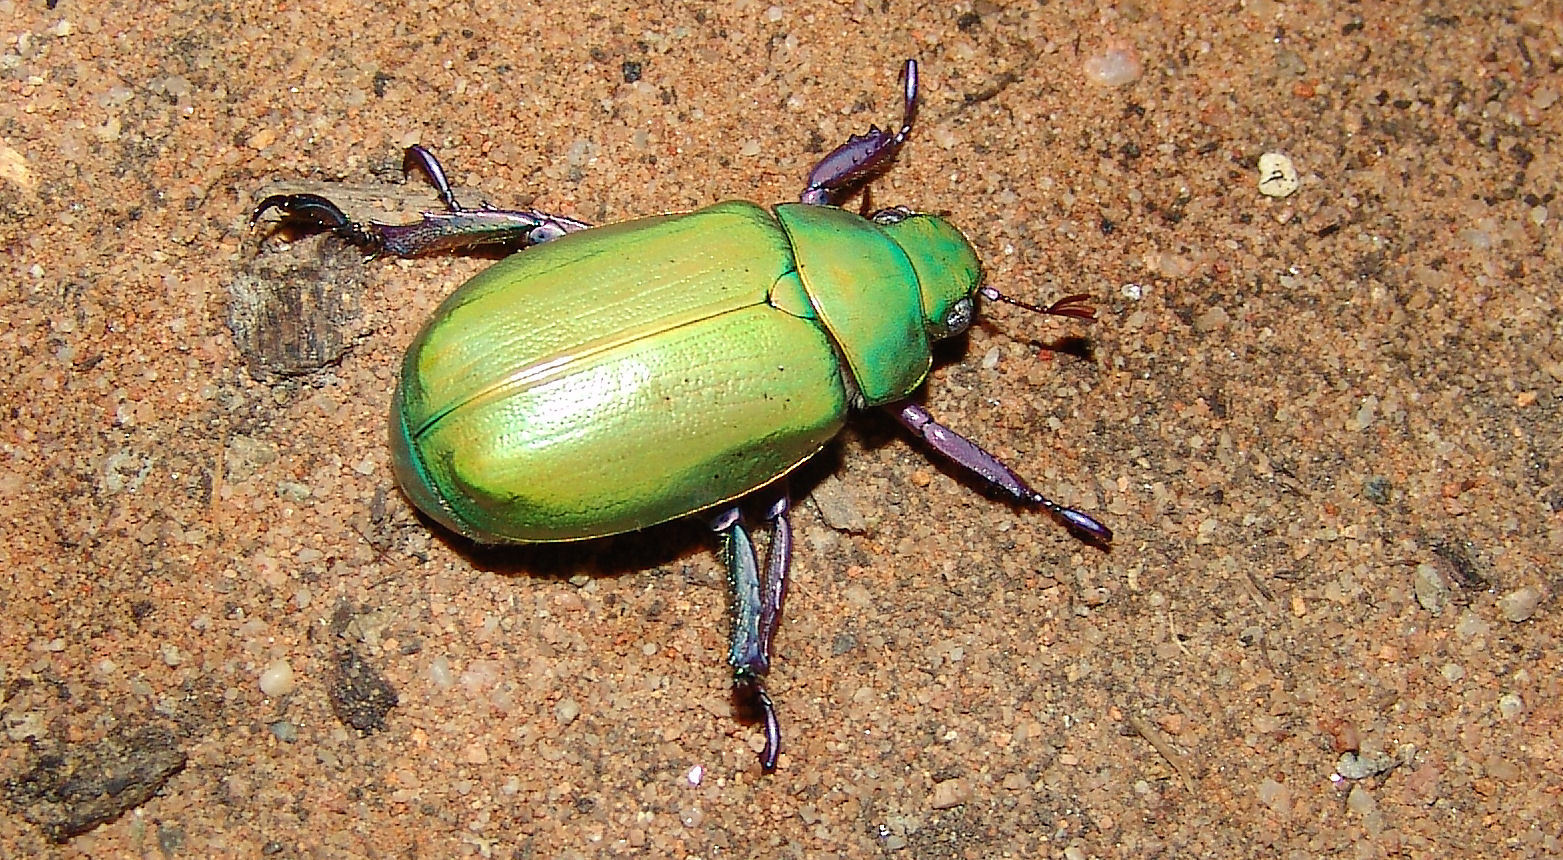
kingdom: Animalia
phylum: Arthropoda
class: Insecta
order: Coleoptera
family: Scarabaeidae
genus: Chrysina
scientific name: Chrysina beyeri
